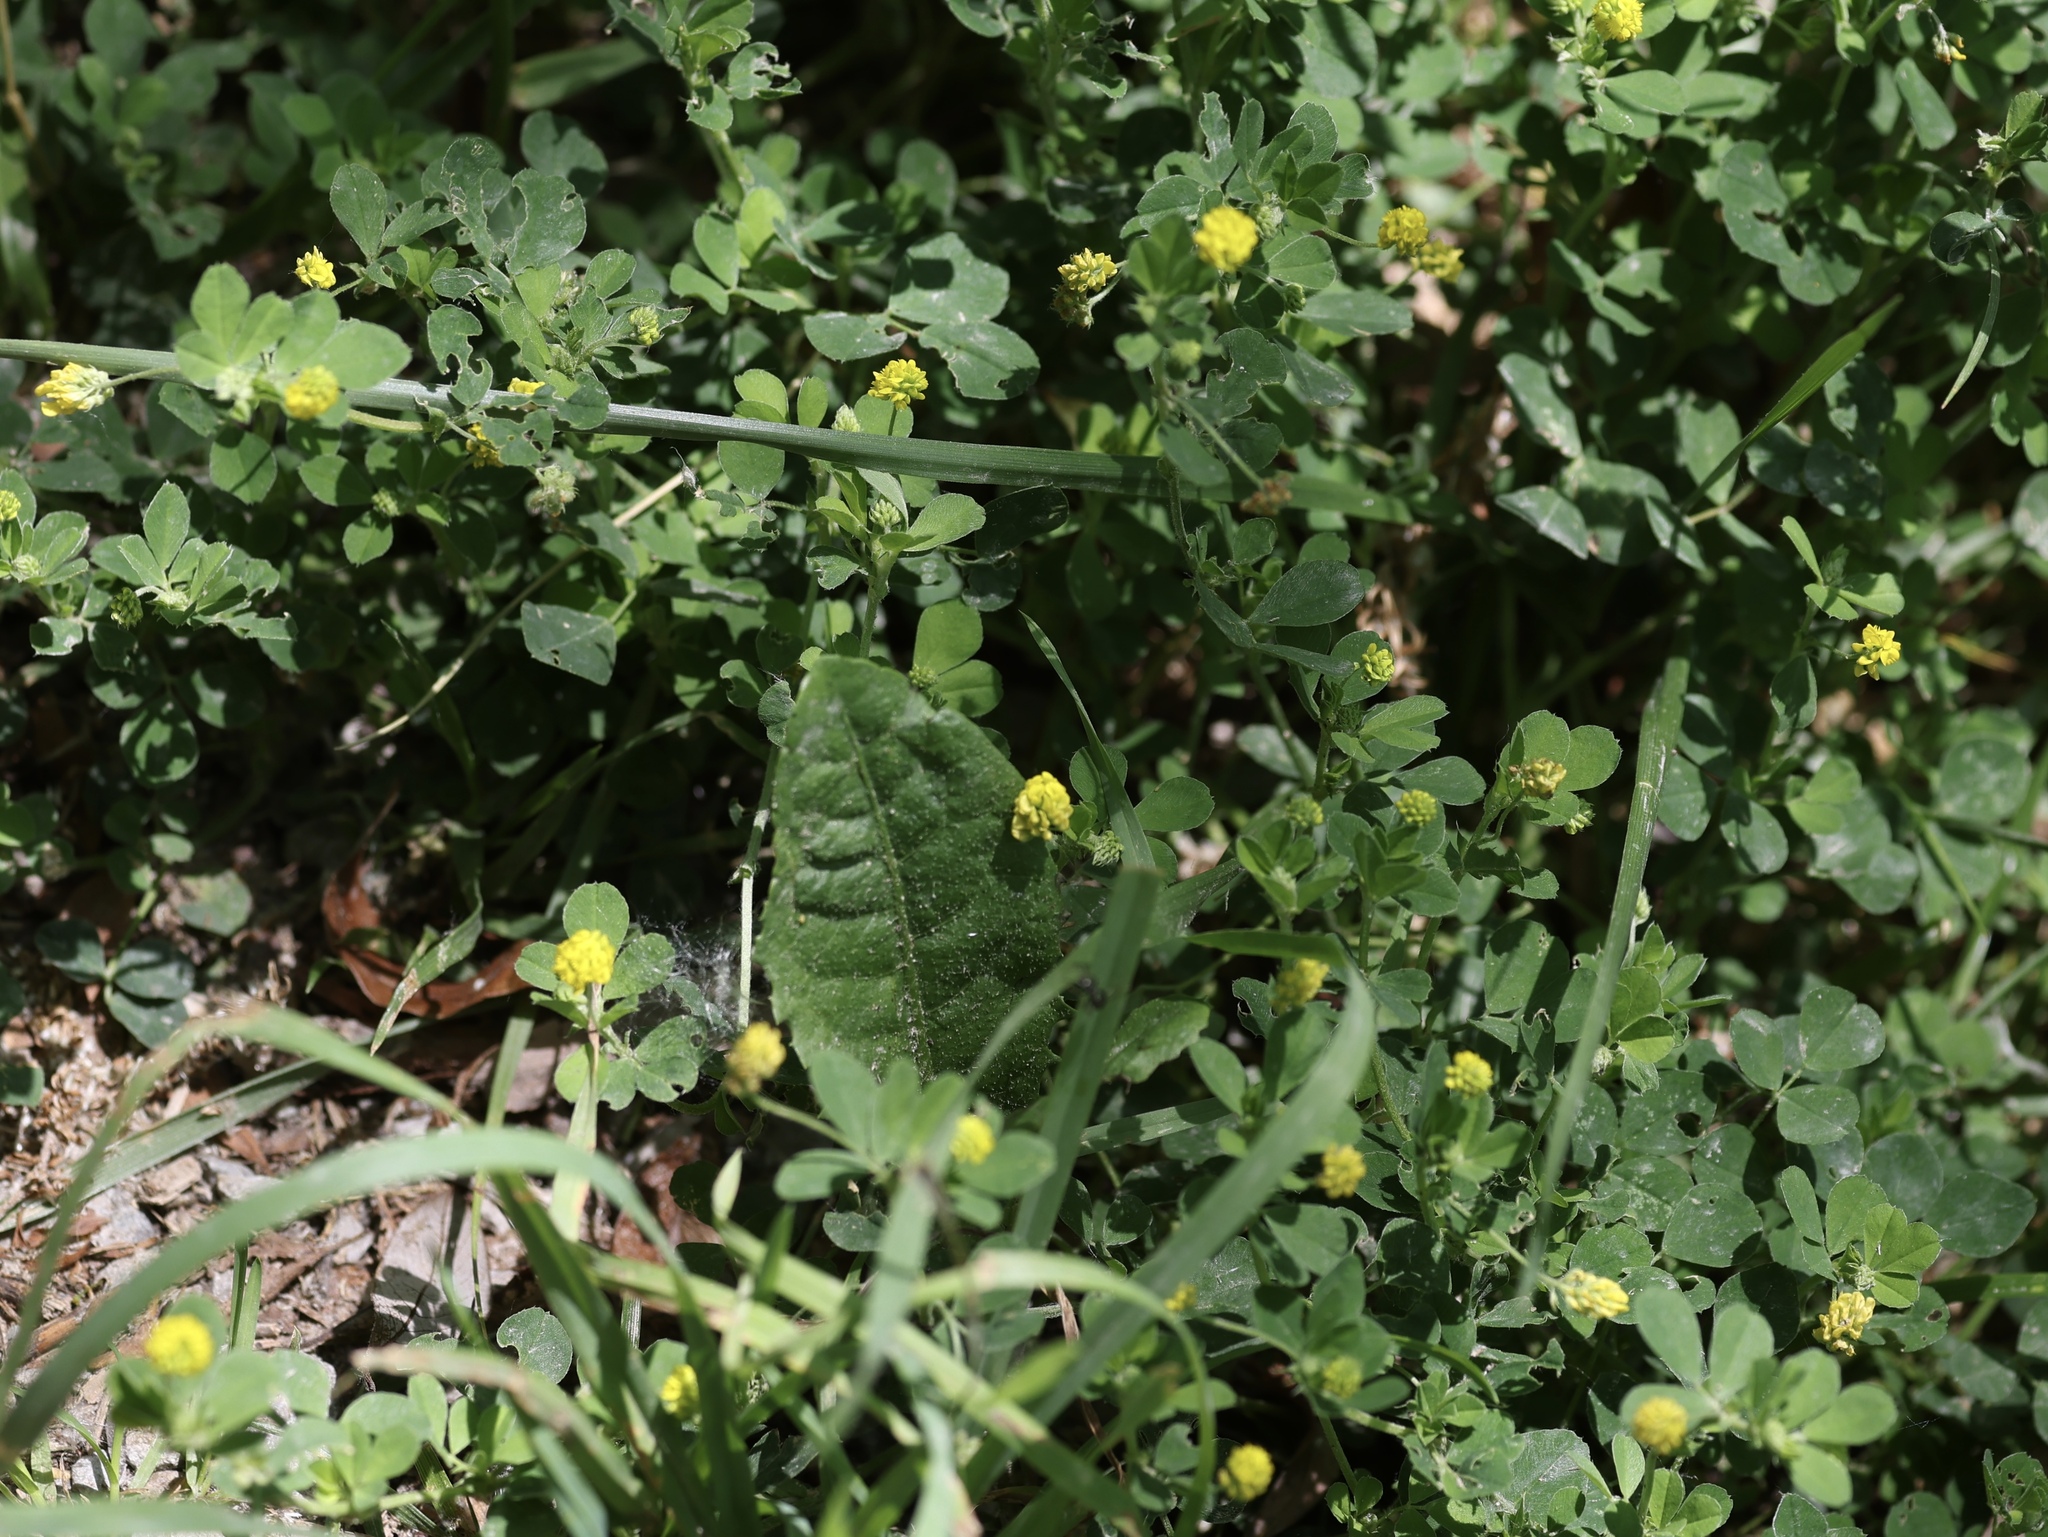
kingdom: Plantae
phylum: Tracheophyta
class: Magnoliopsida
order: Fabales
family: Fabaceae
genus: Medicago
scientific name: Medicago lupulina
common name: Black medick
